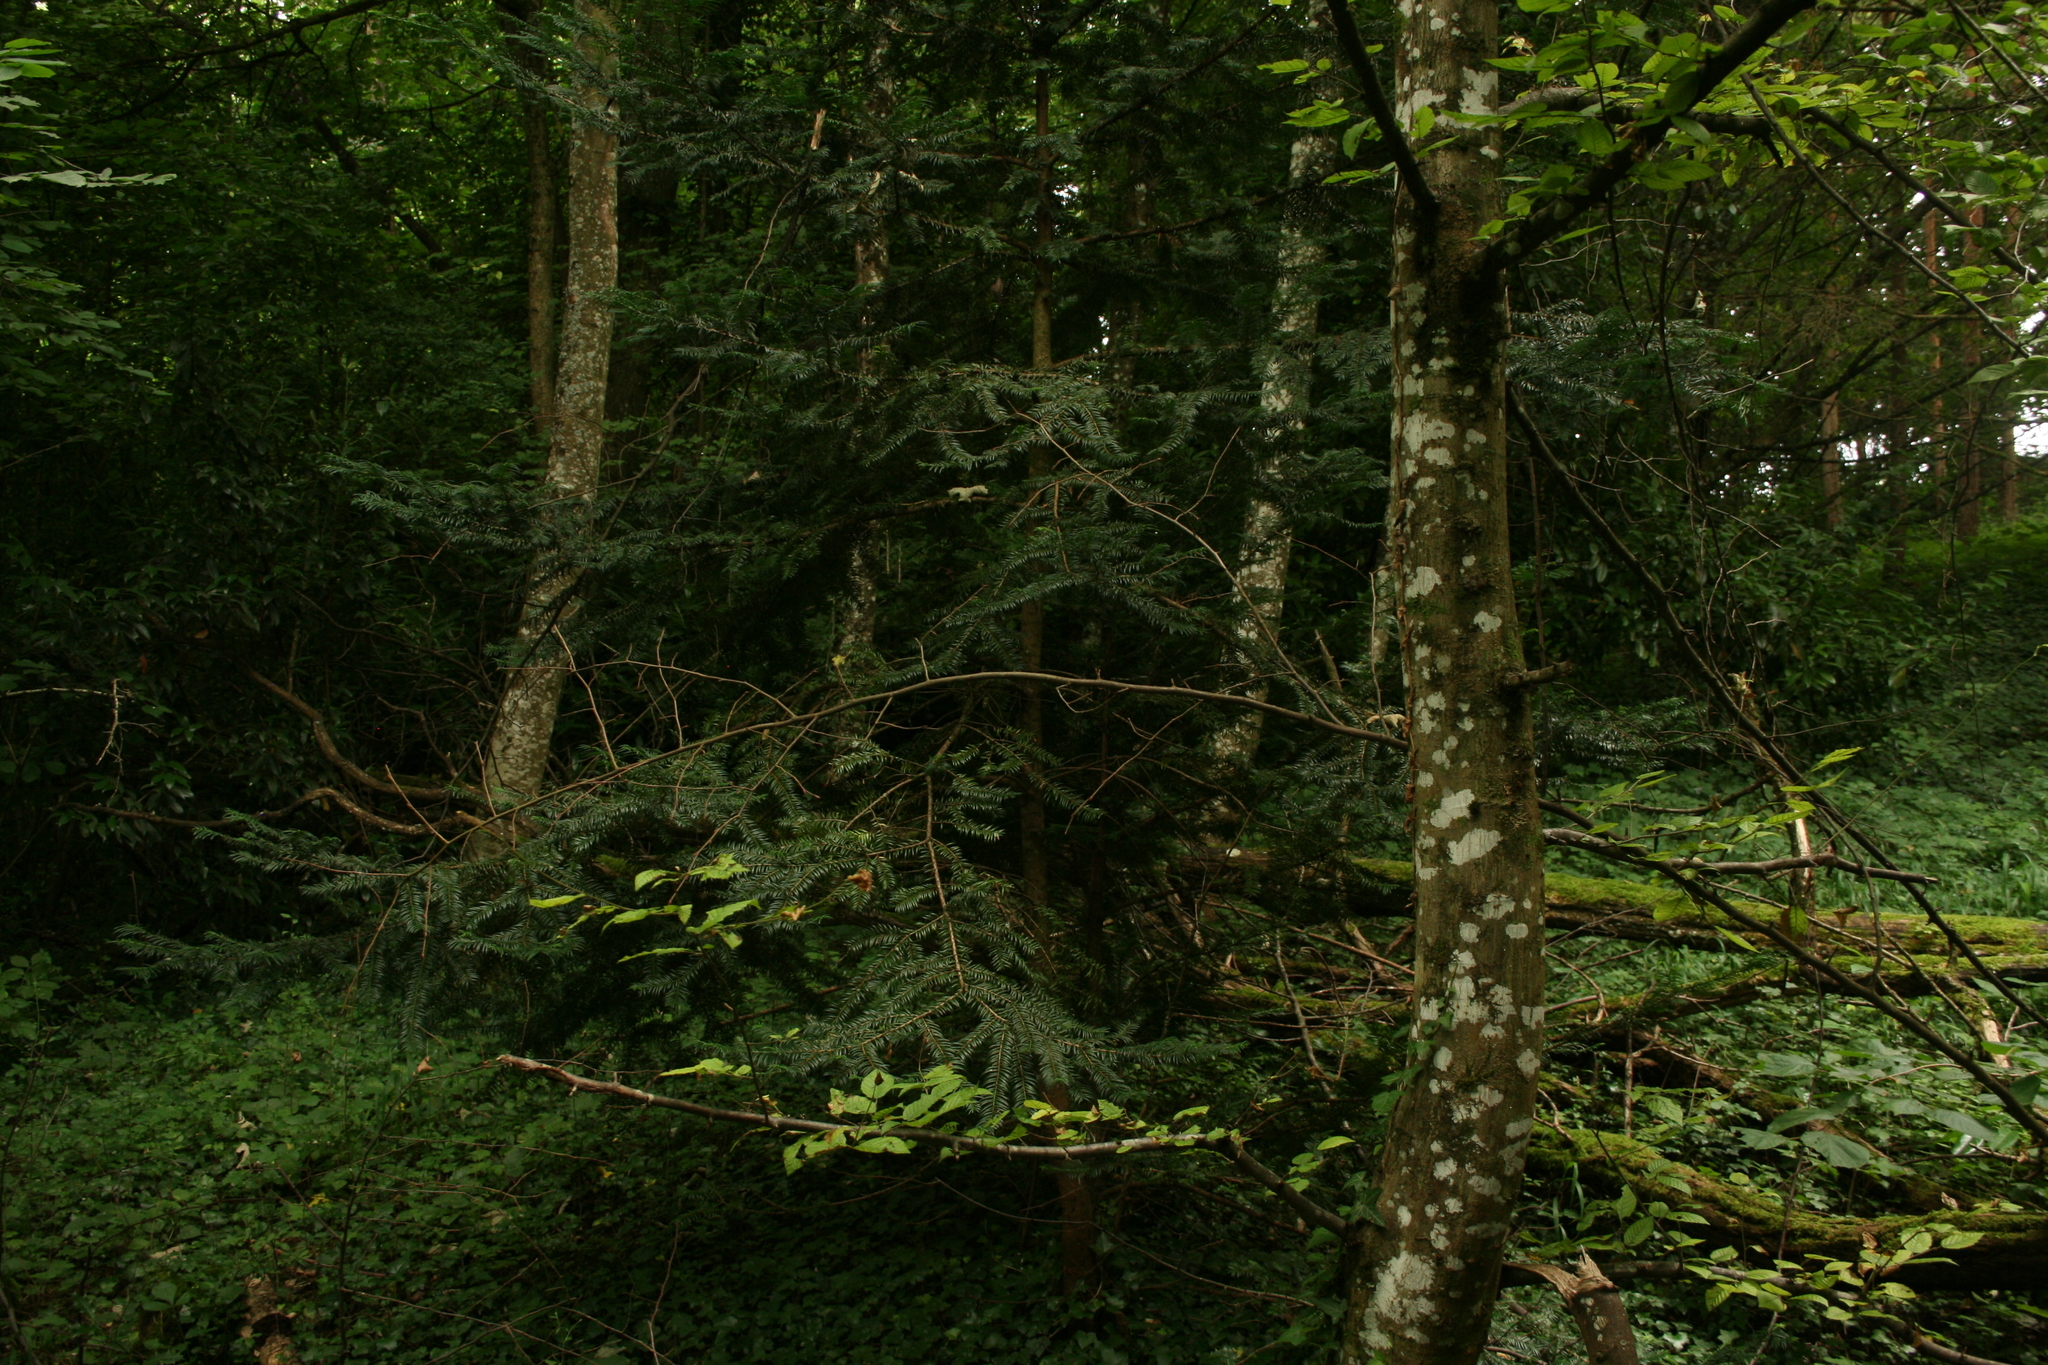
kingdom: Plantae
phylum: Tracheophyta
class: Pinopsida
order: Pinales
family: Taxaceae
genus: Taxus
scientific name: Taxus baccata
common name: Yew
